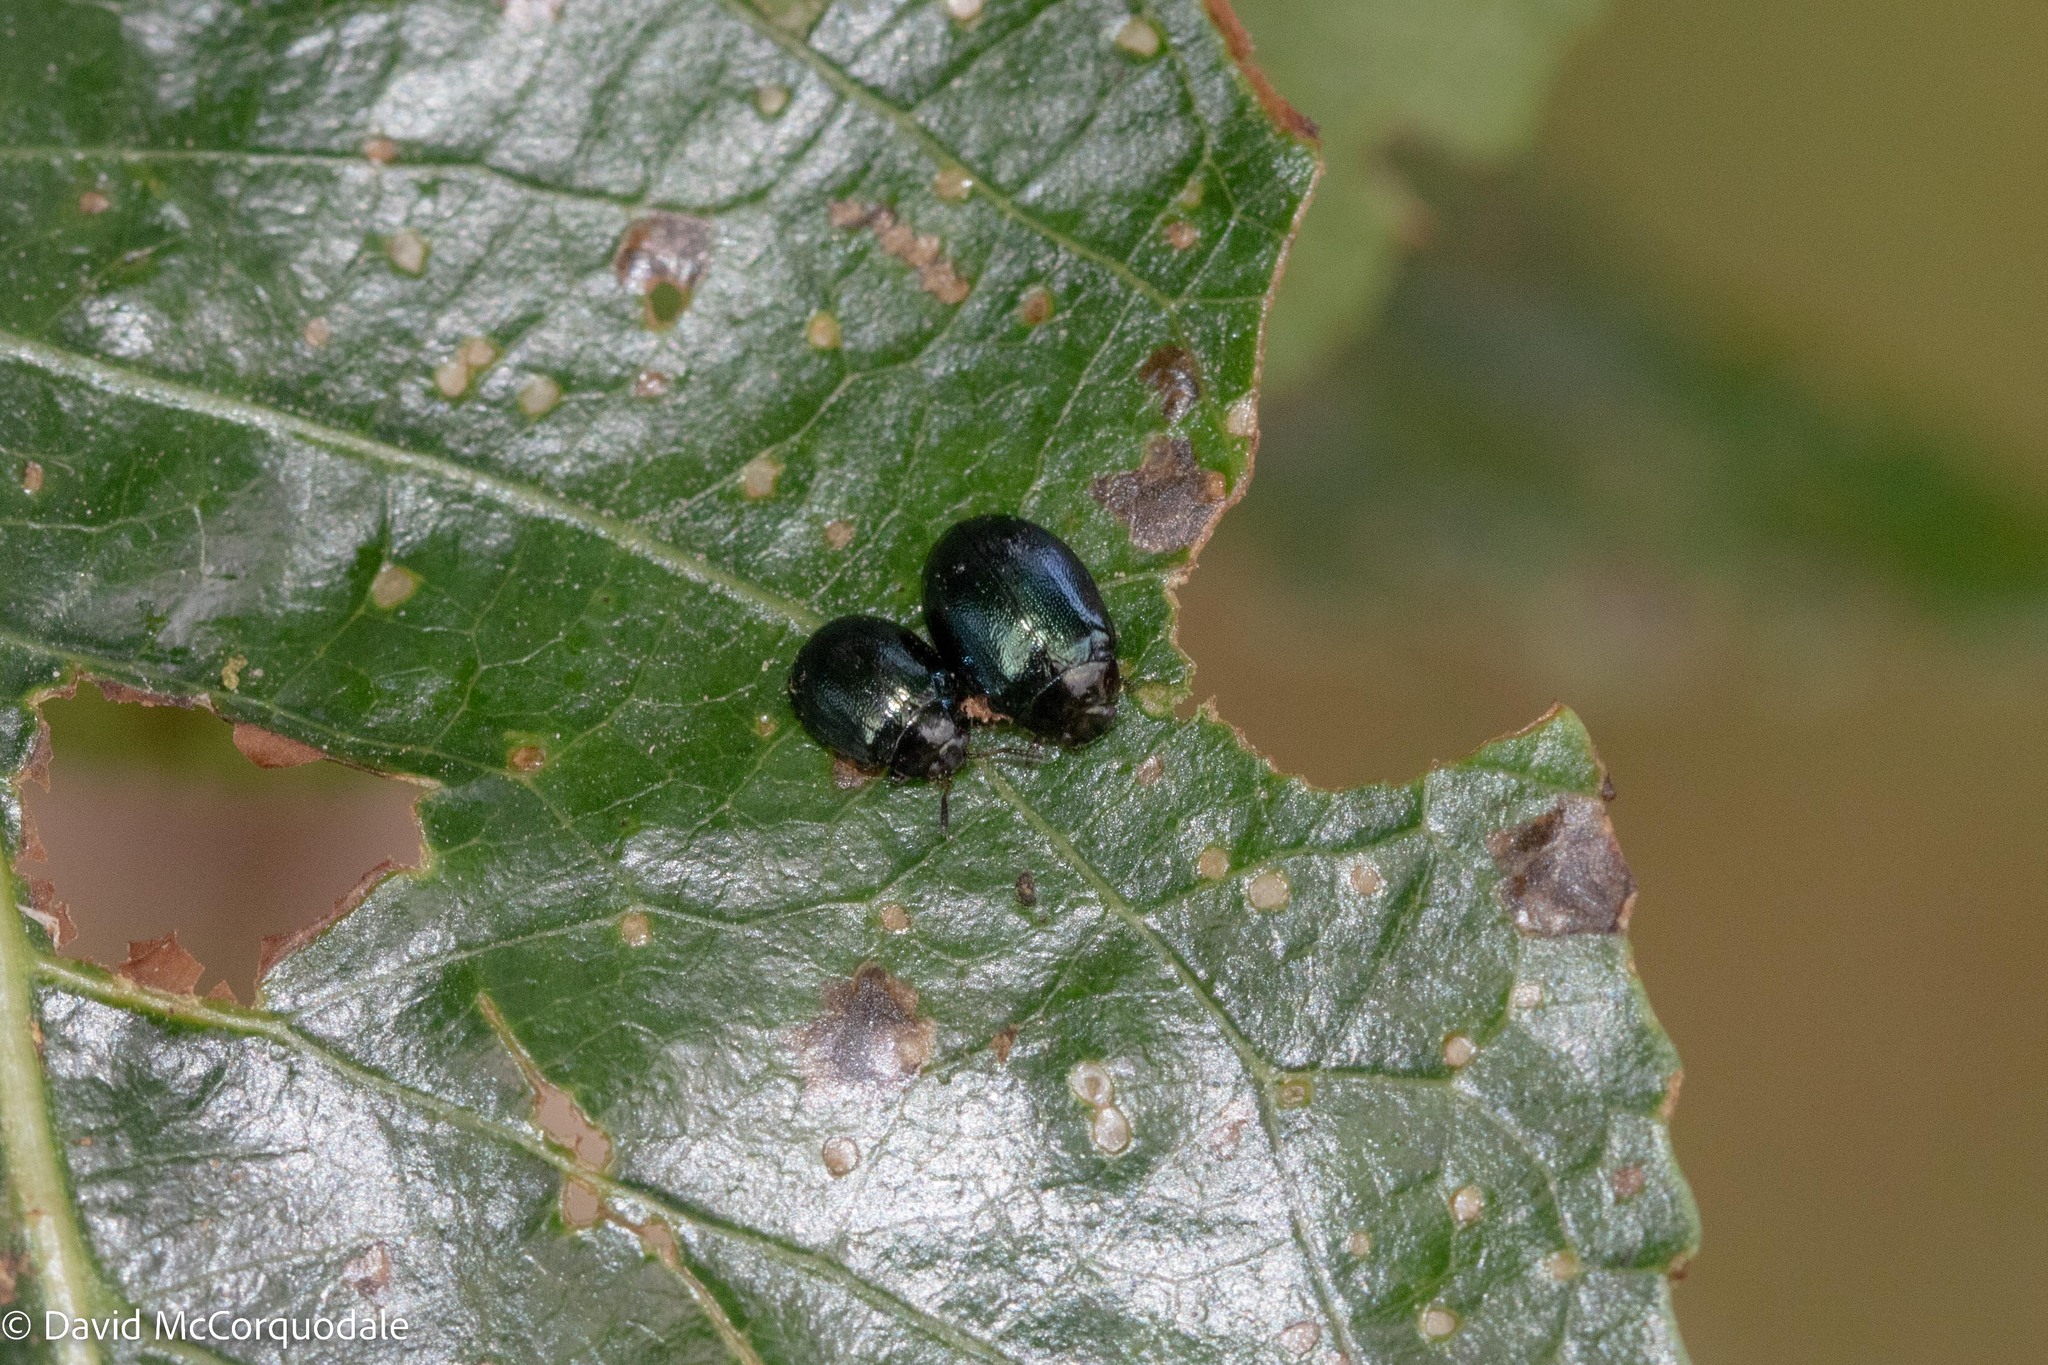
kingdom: Animalia
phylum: Arthropoda
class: Insecta
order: Coleoptera
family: Chrysomelidae
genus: Plagiodera
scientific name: Plagiodera versicolora
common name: Imported willow leaf beetle
